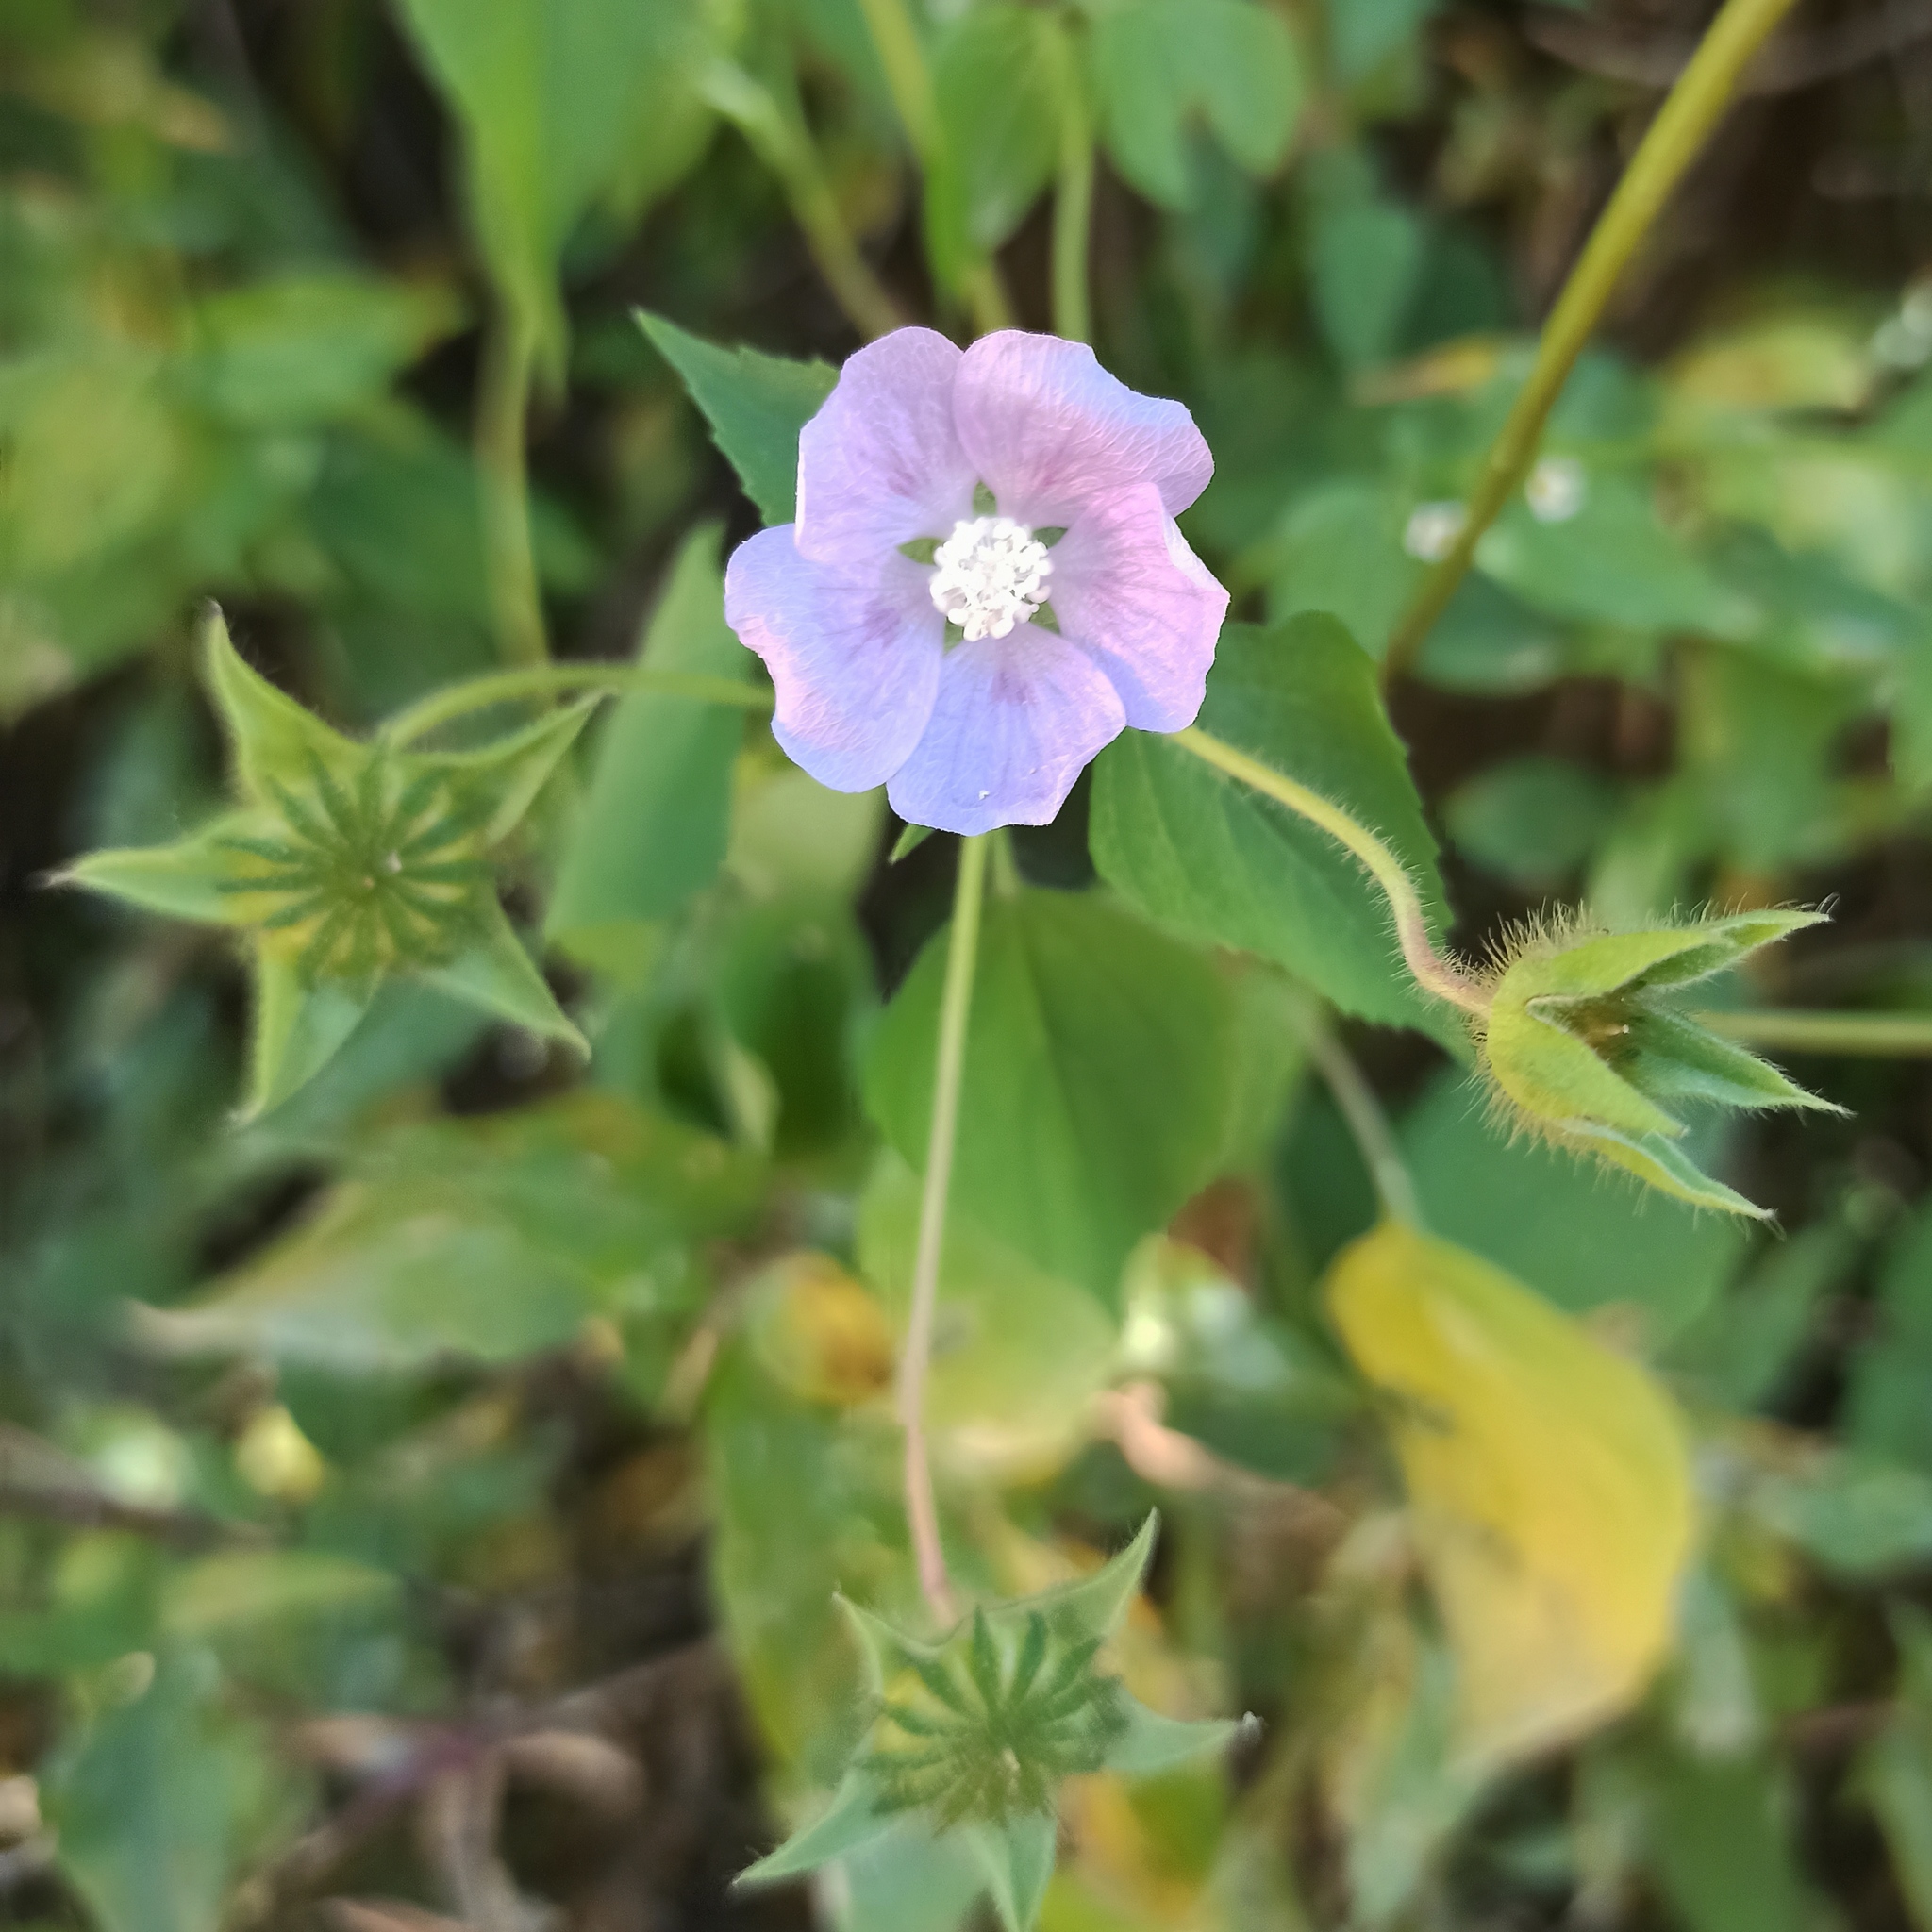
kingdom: Plantae
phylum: Tracheophyta
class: Magnoliopsida
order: Malvales
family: Malvaceae
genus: Anoda
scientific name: Anoda cristata
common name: Spurred anoda
